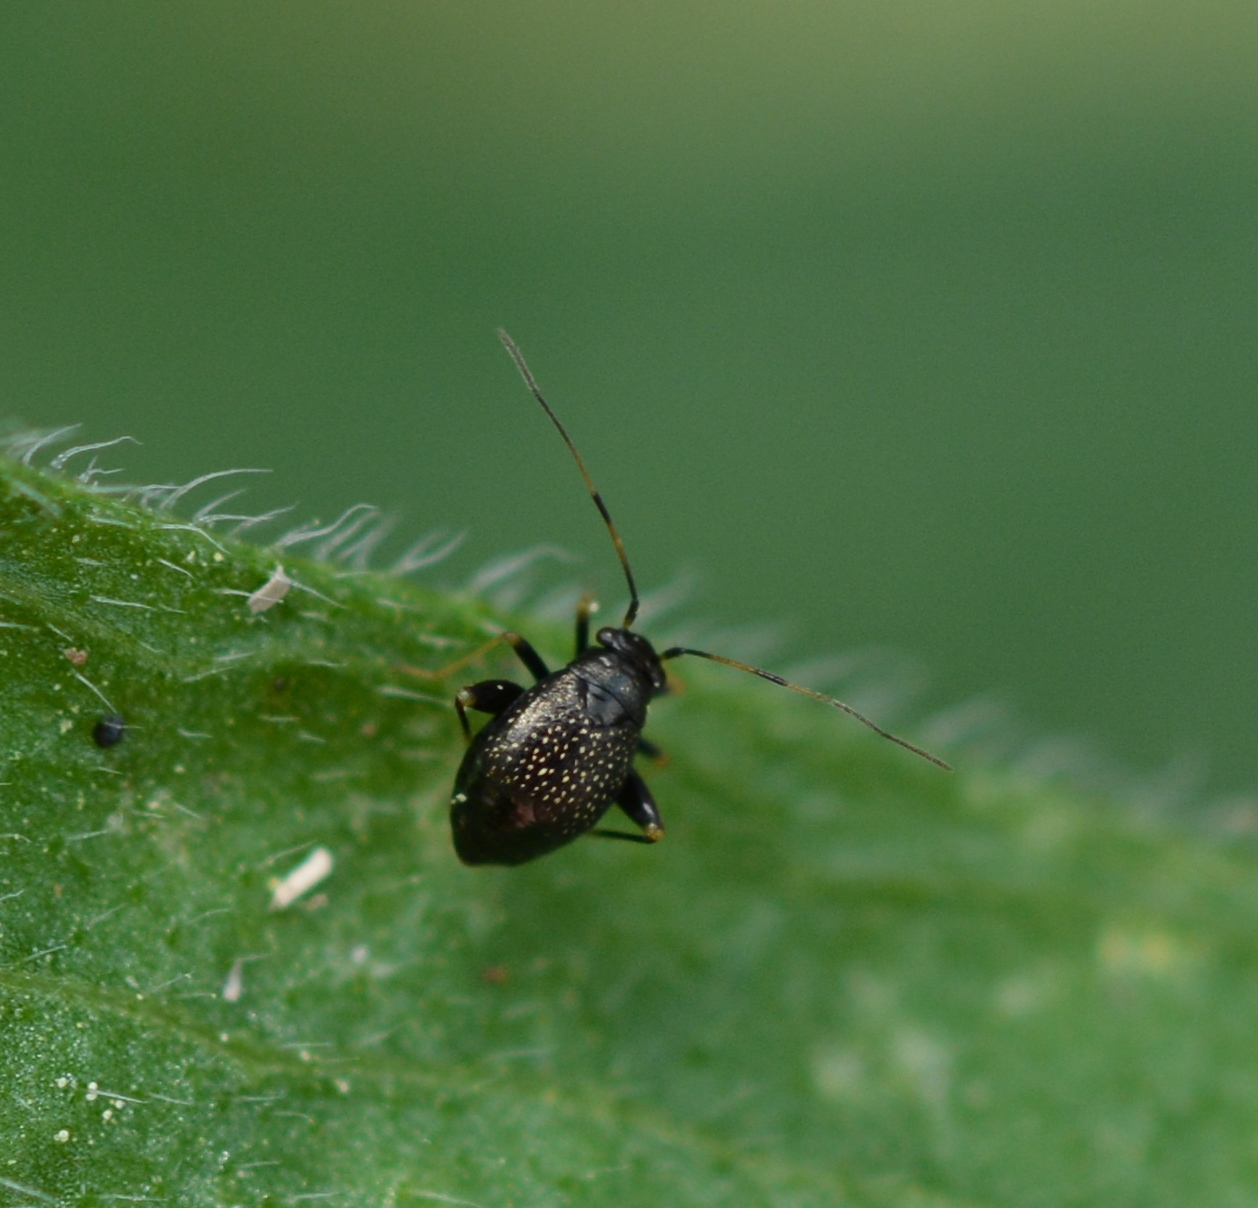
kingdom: Animalia
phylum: Arthropoda
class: Insecta
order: Hemiptera
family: Miridae
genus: Microtechnites
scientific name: Microtechnites bractatus
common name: Garden fleahopper
